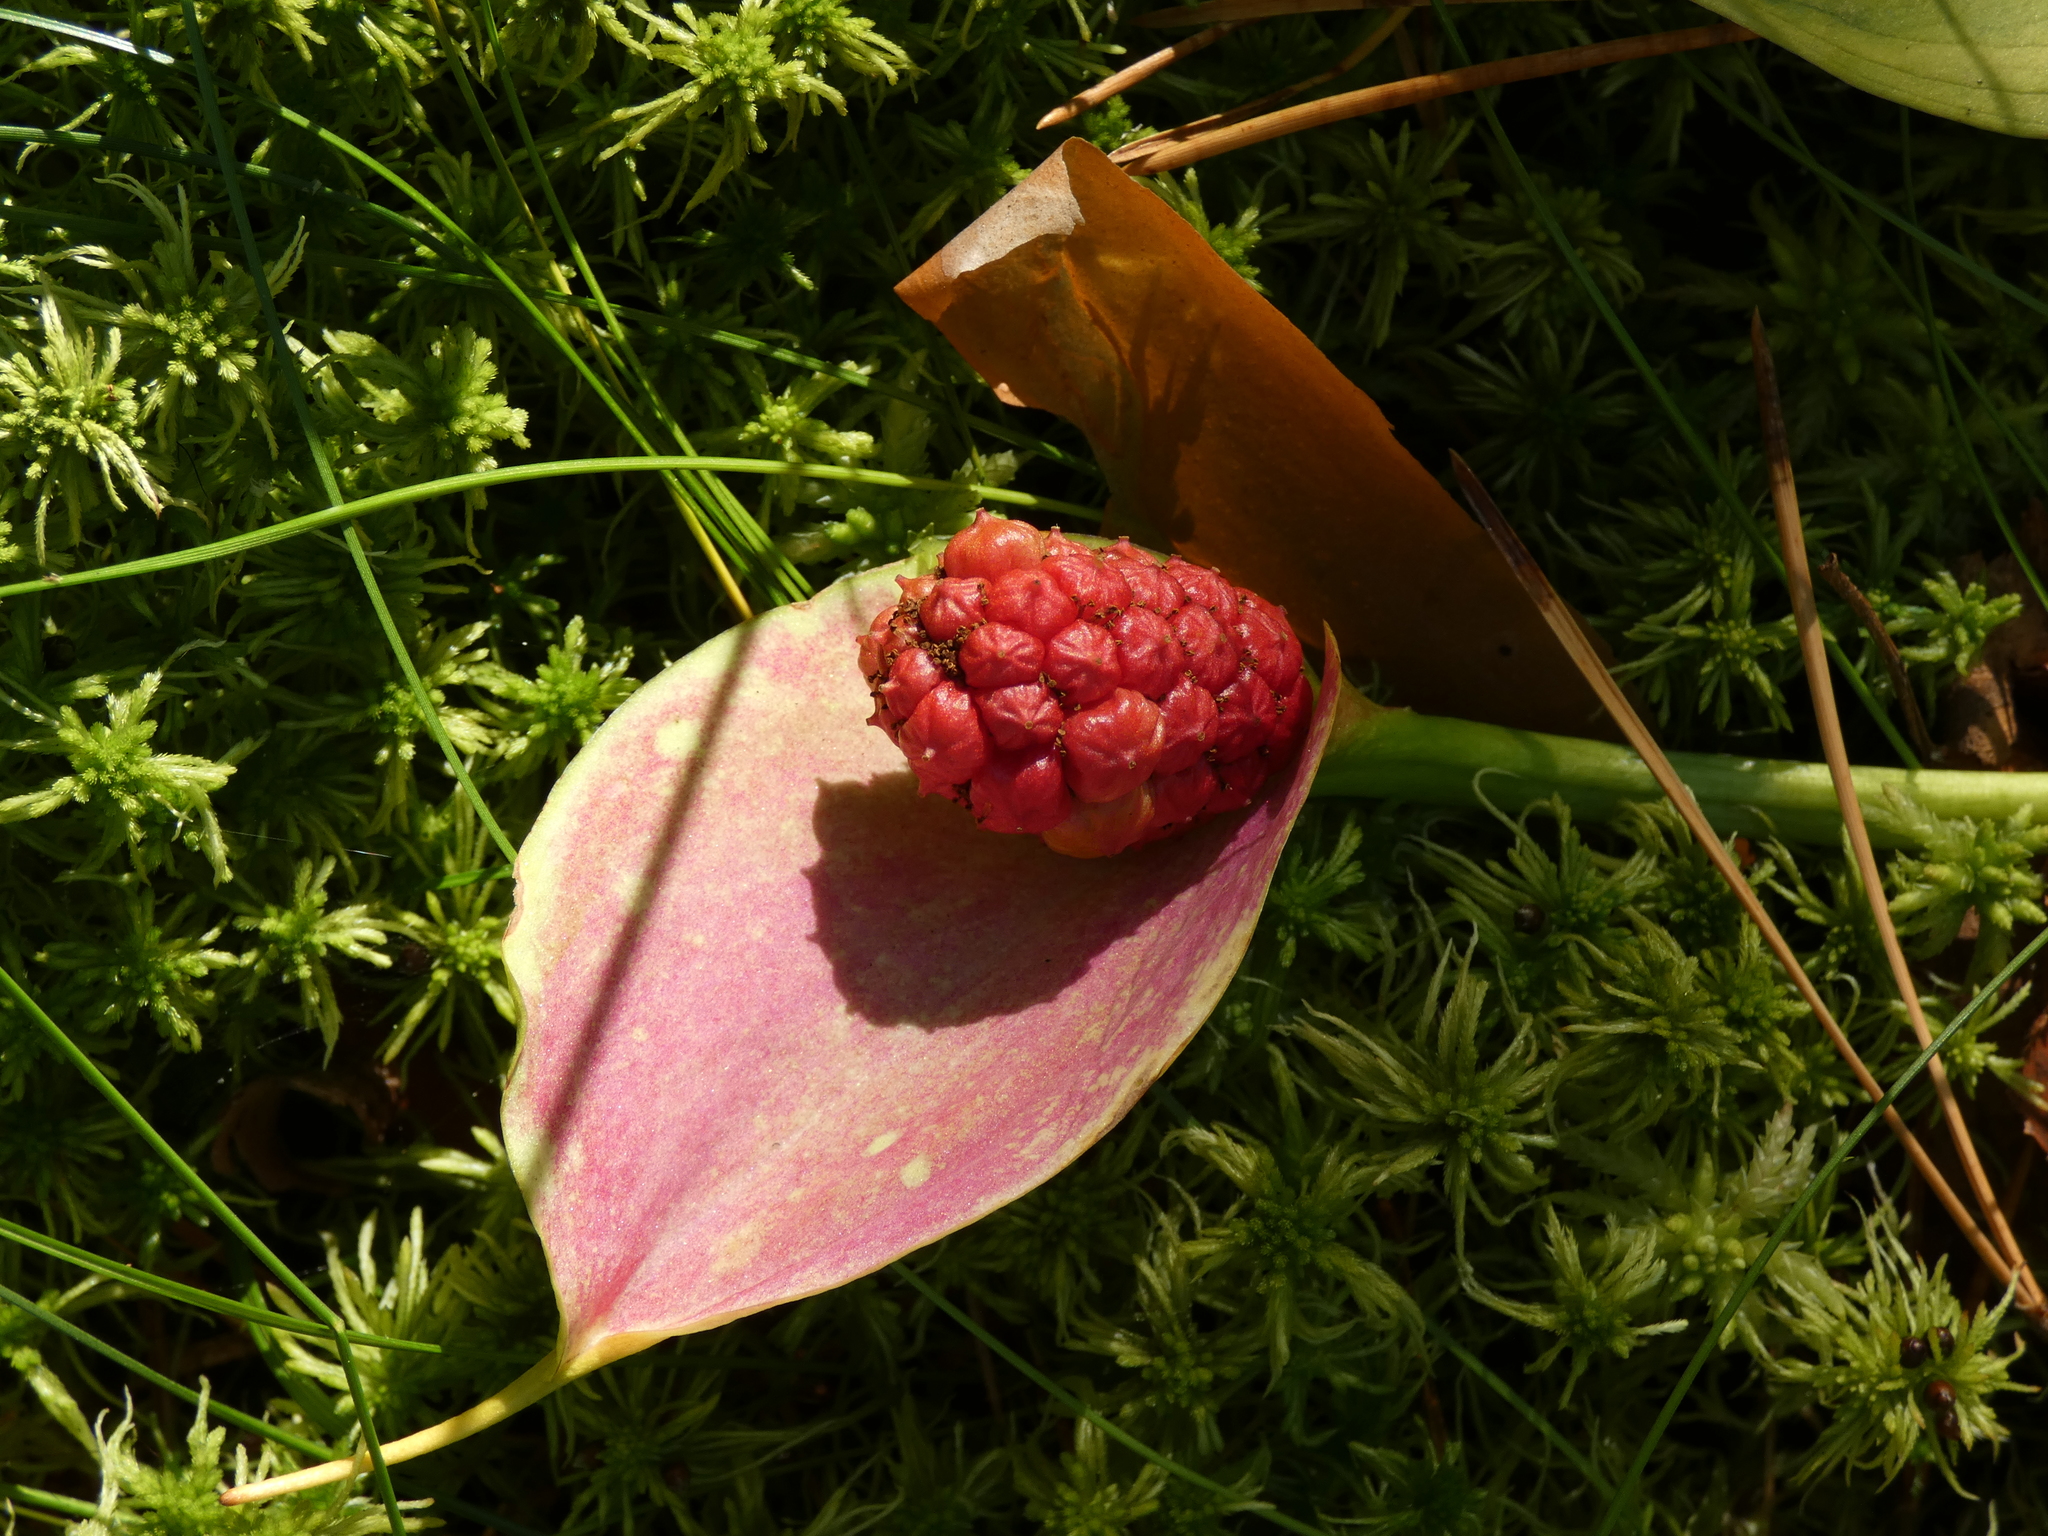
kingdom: Plantae
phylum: Tracheophyta
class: Liliopsida
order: Alismatales
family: Araceae
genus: Calla
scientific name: Calla palustris
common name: Bog arum
